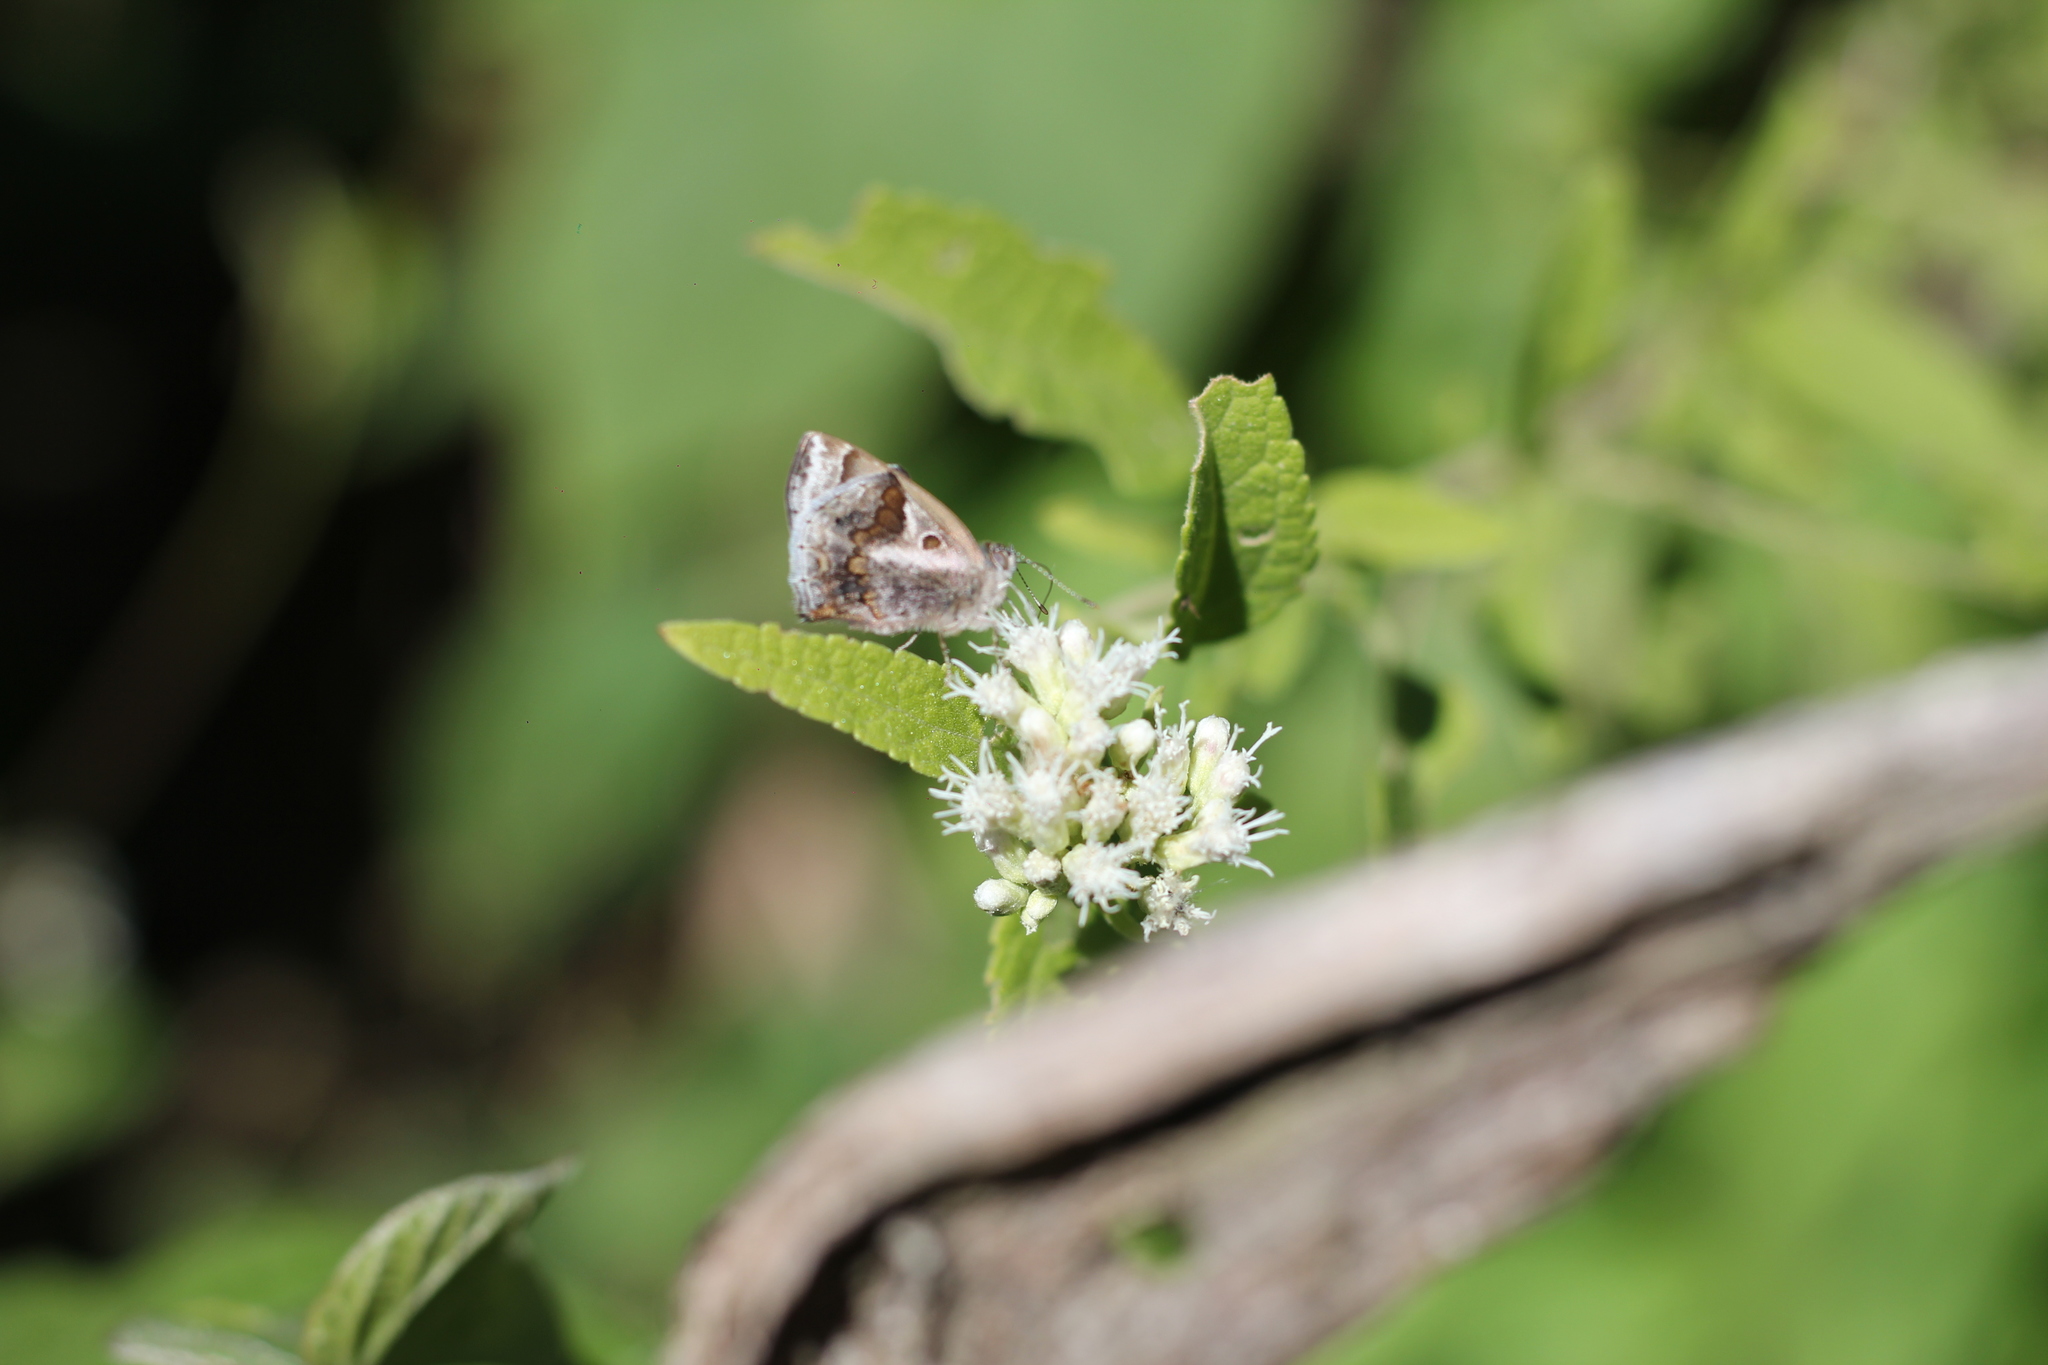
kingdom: Animalia
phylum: Arthropoda
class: Insecta
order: Lepidoptera
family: Lycaenidae
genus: Strymon
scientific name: Strymon bazochii
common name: Lantana scrub-hairstreak
